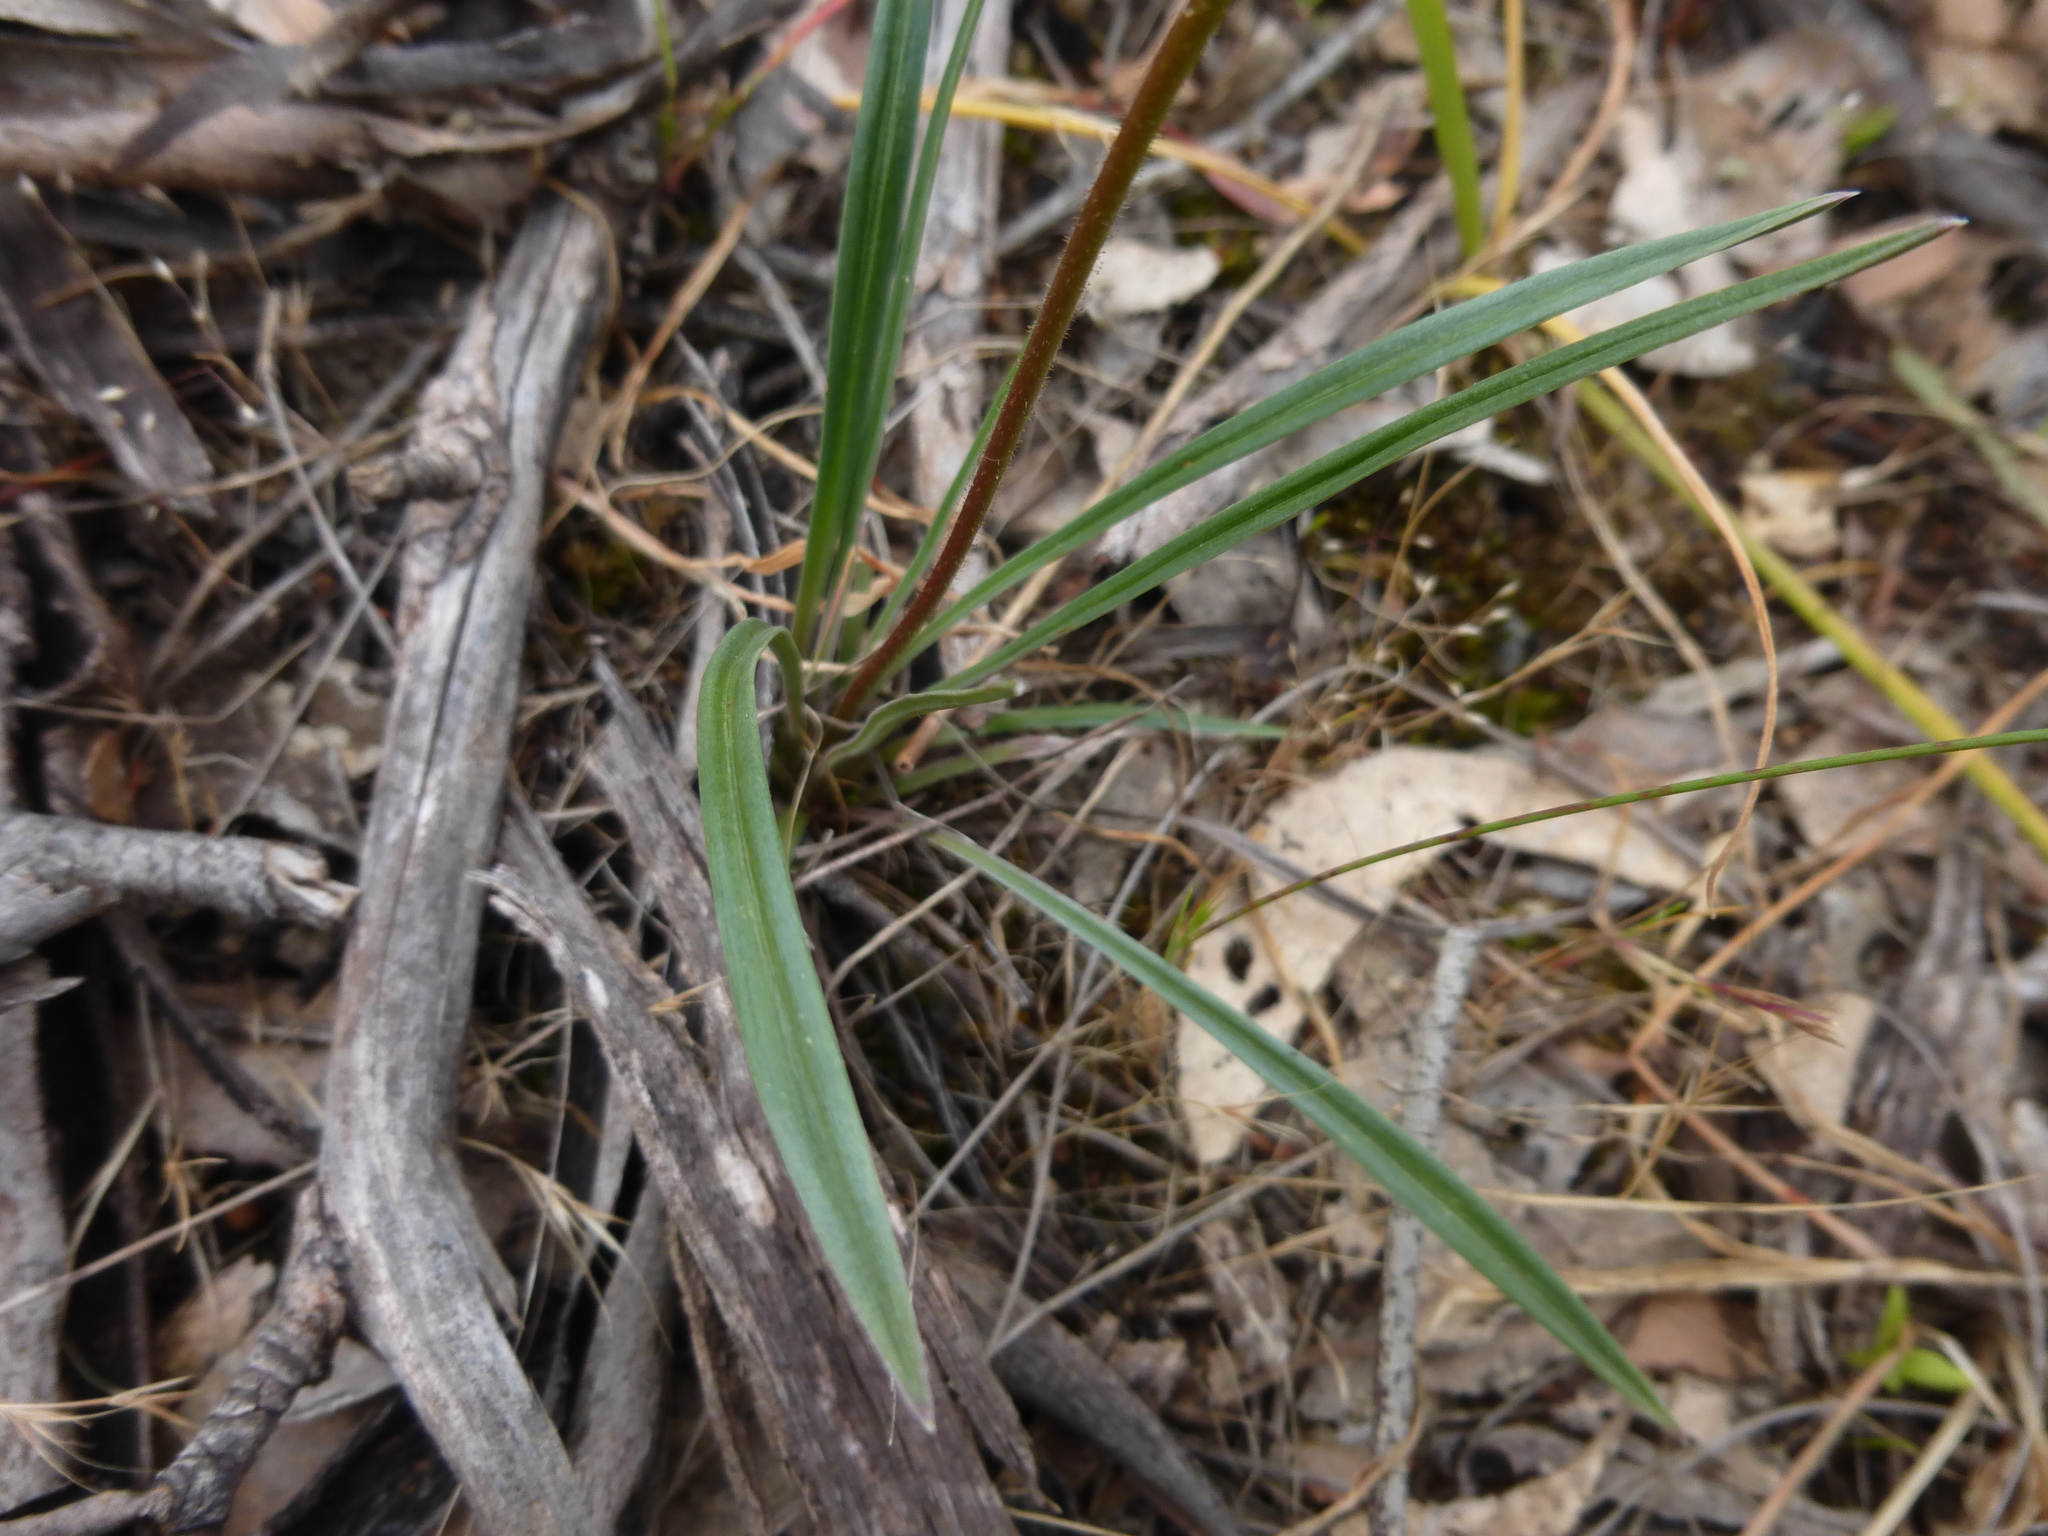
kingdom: Plantae
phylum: Tracheophyta
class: Magnoliopsida
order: Asterales
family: Stylidiaceae
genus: Stylidium
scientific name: Stylidium graminifolium
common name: Grass triggerplant
